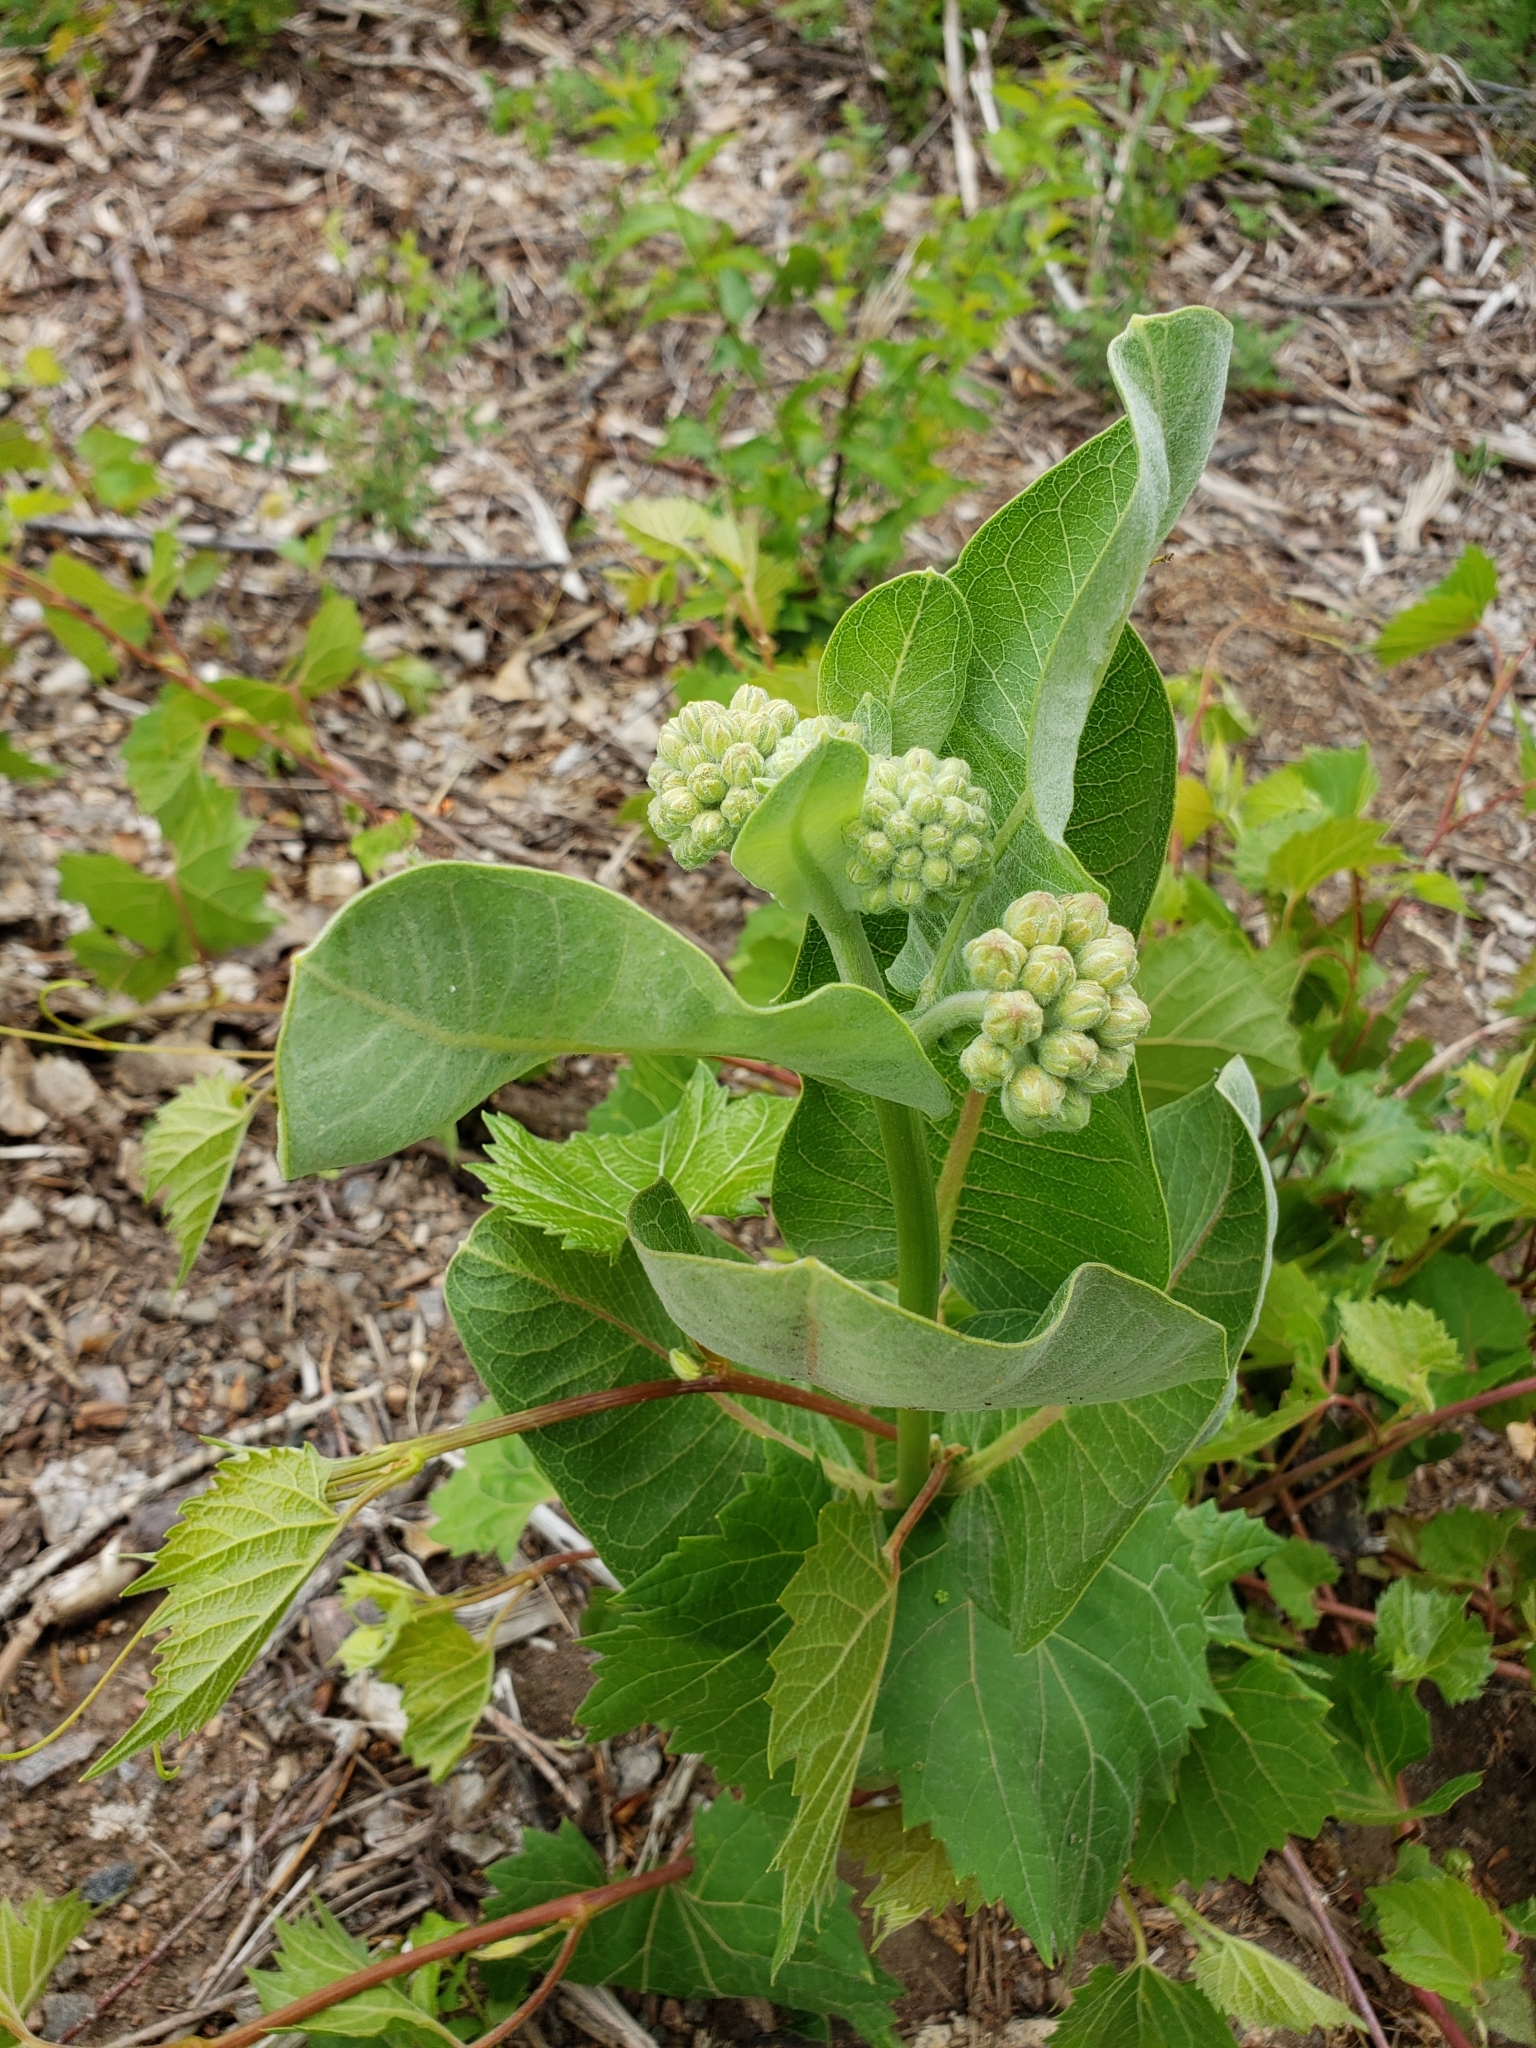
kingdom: Plantae
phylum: Tracheophyta
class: Magnoliopsida
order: Gentianales
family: Apocynaceae
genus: Asclepias
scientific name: Asclepias speciosa
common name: Showy milkweed
